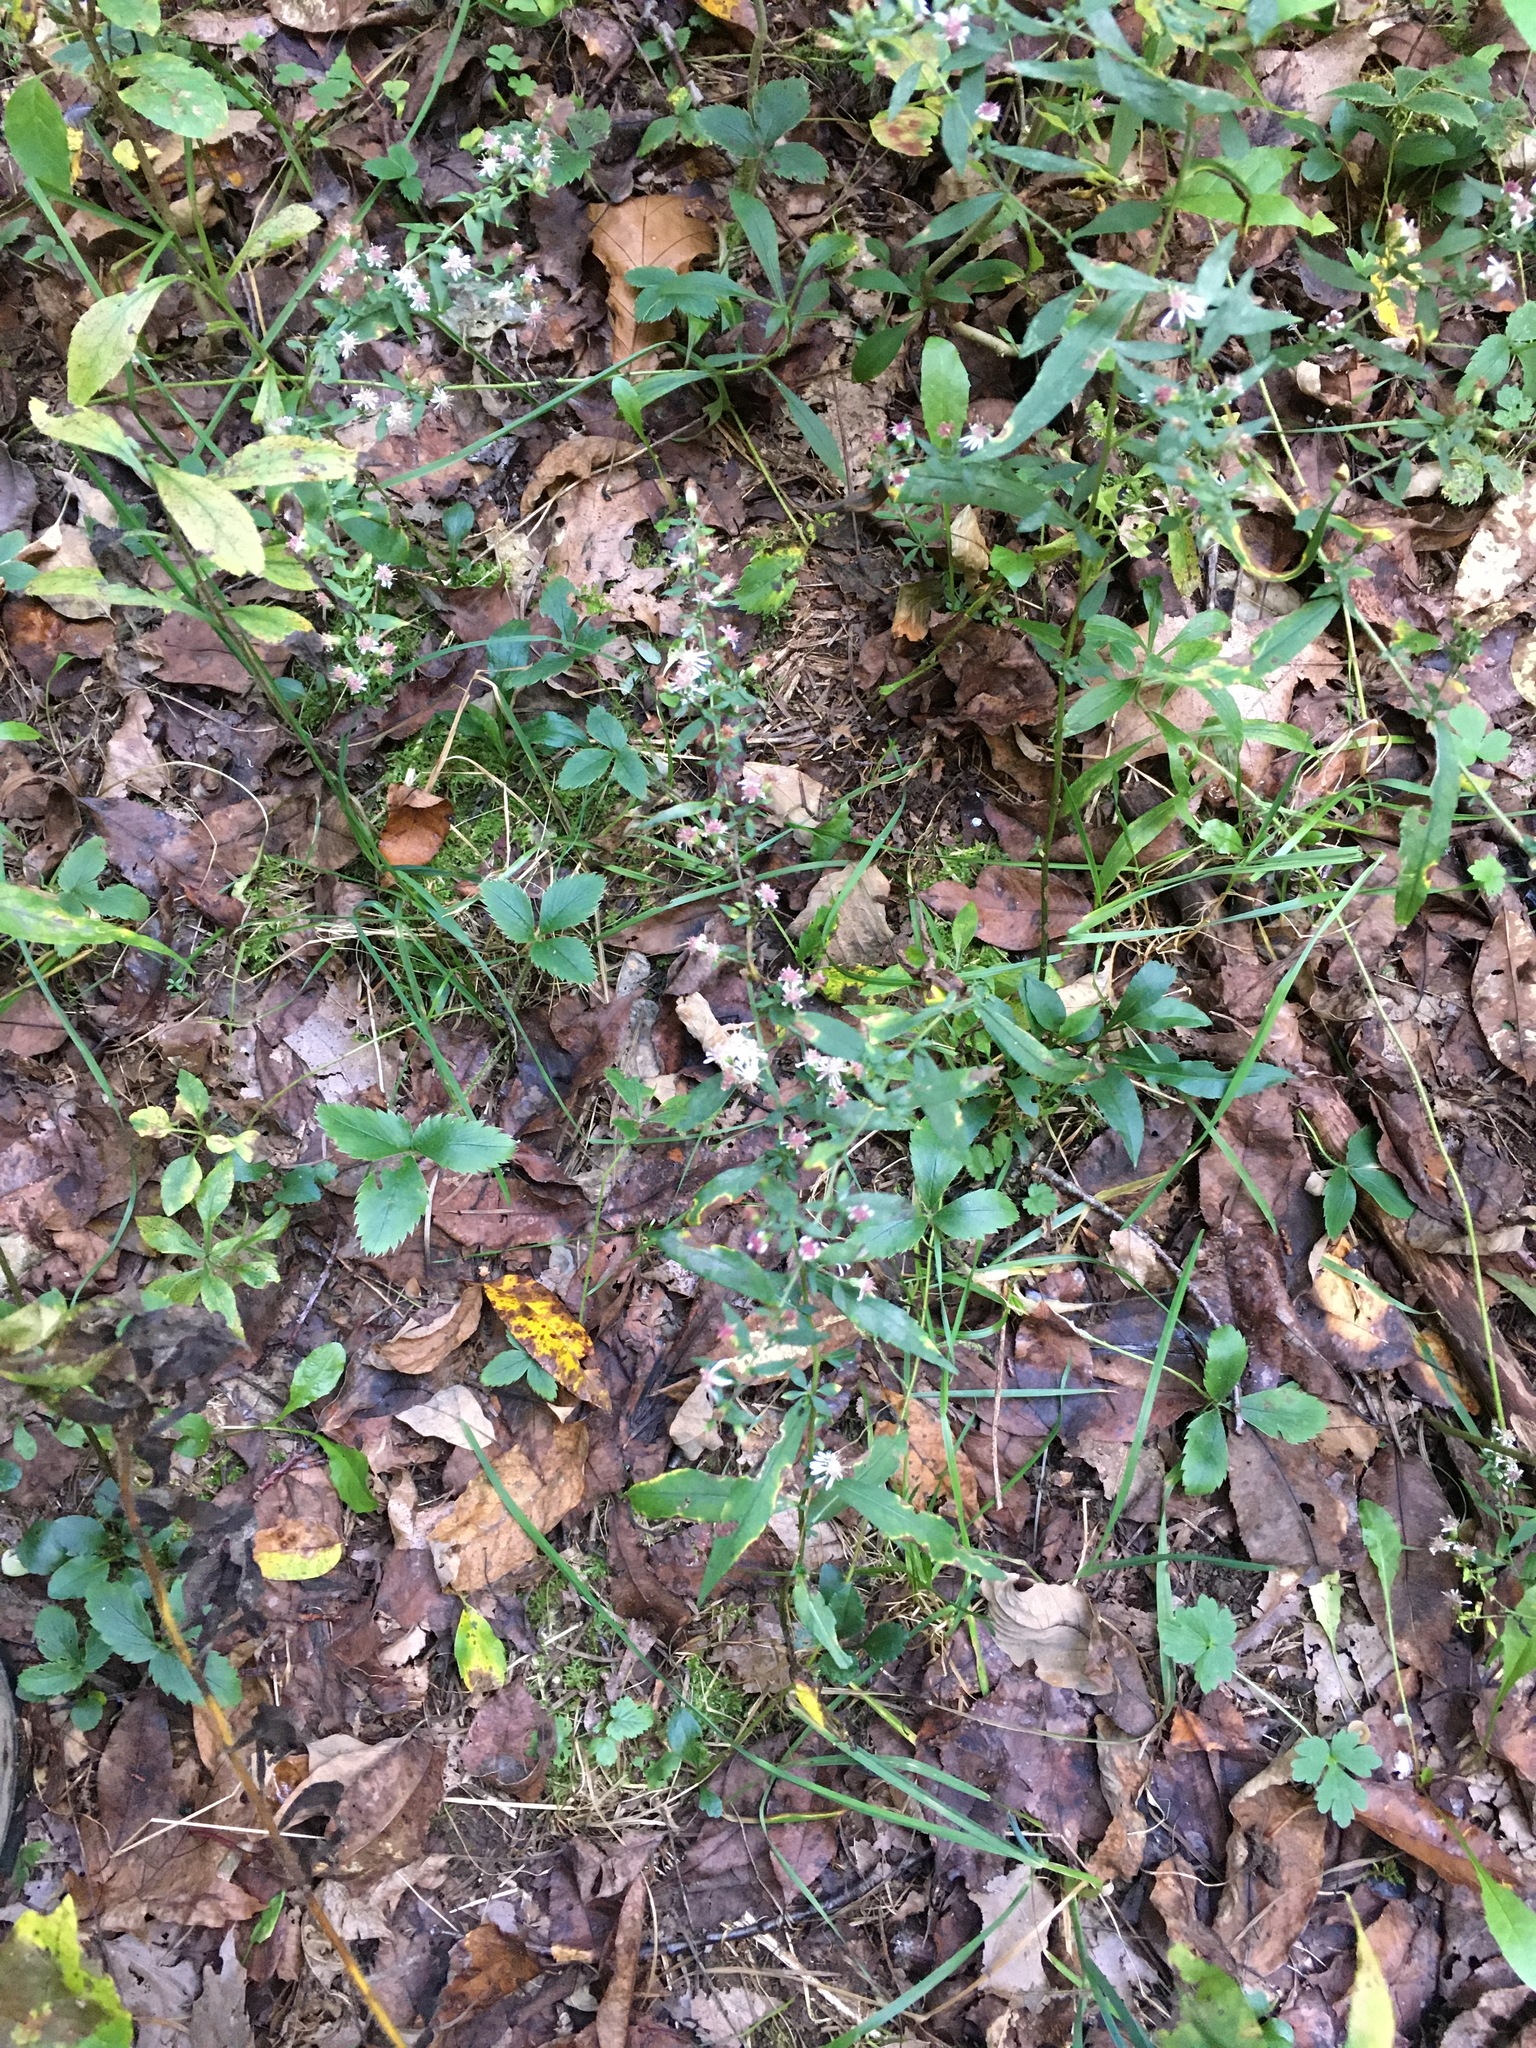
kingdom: Plantae
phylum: Tracheophyta
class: Magnoliopsida
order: Asterales
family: Asteraceae
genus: Symphyotrichum
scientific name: Symphyotrichum lateriflorum
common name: Calico aster
